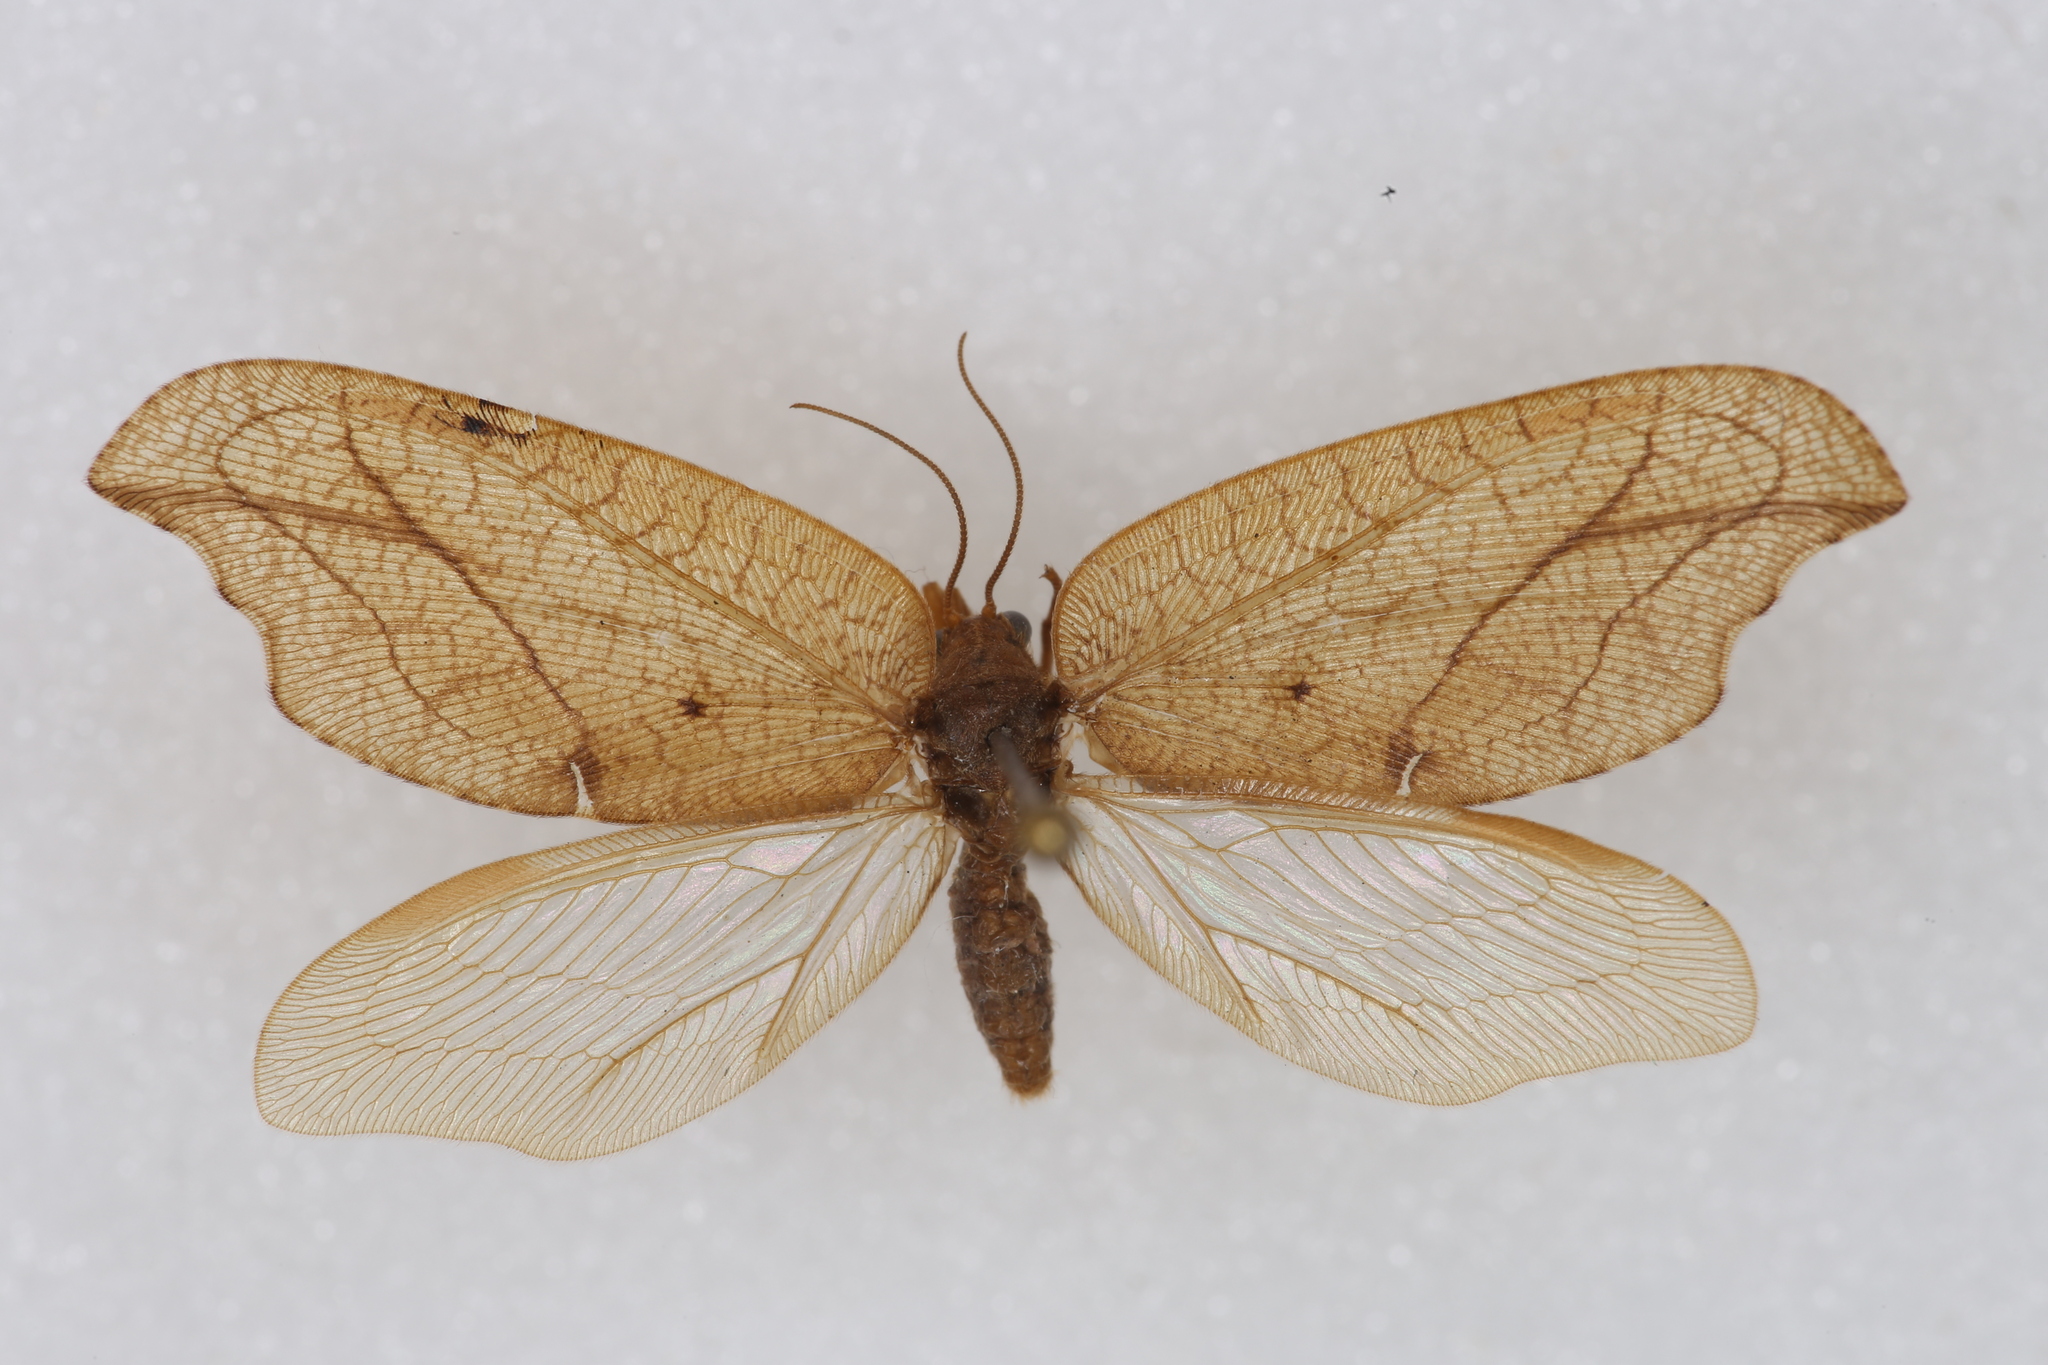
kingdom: Animalia
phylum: Arthropoda
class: Insecta
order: Neuroptera
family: Hemerobiidae
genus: Drepanepteryx
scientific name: Drepanepteryx phalaenoides
